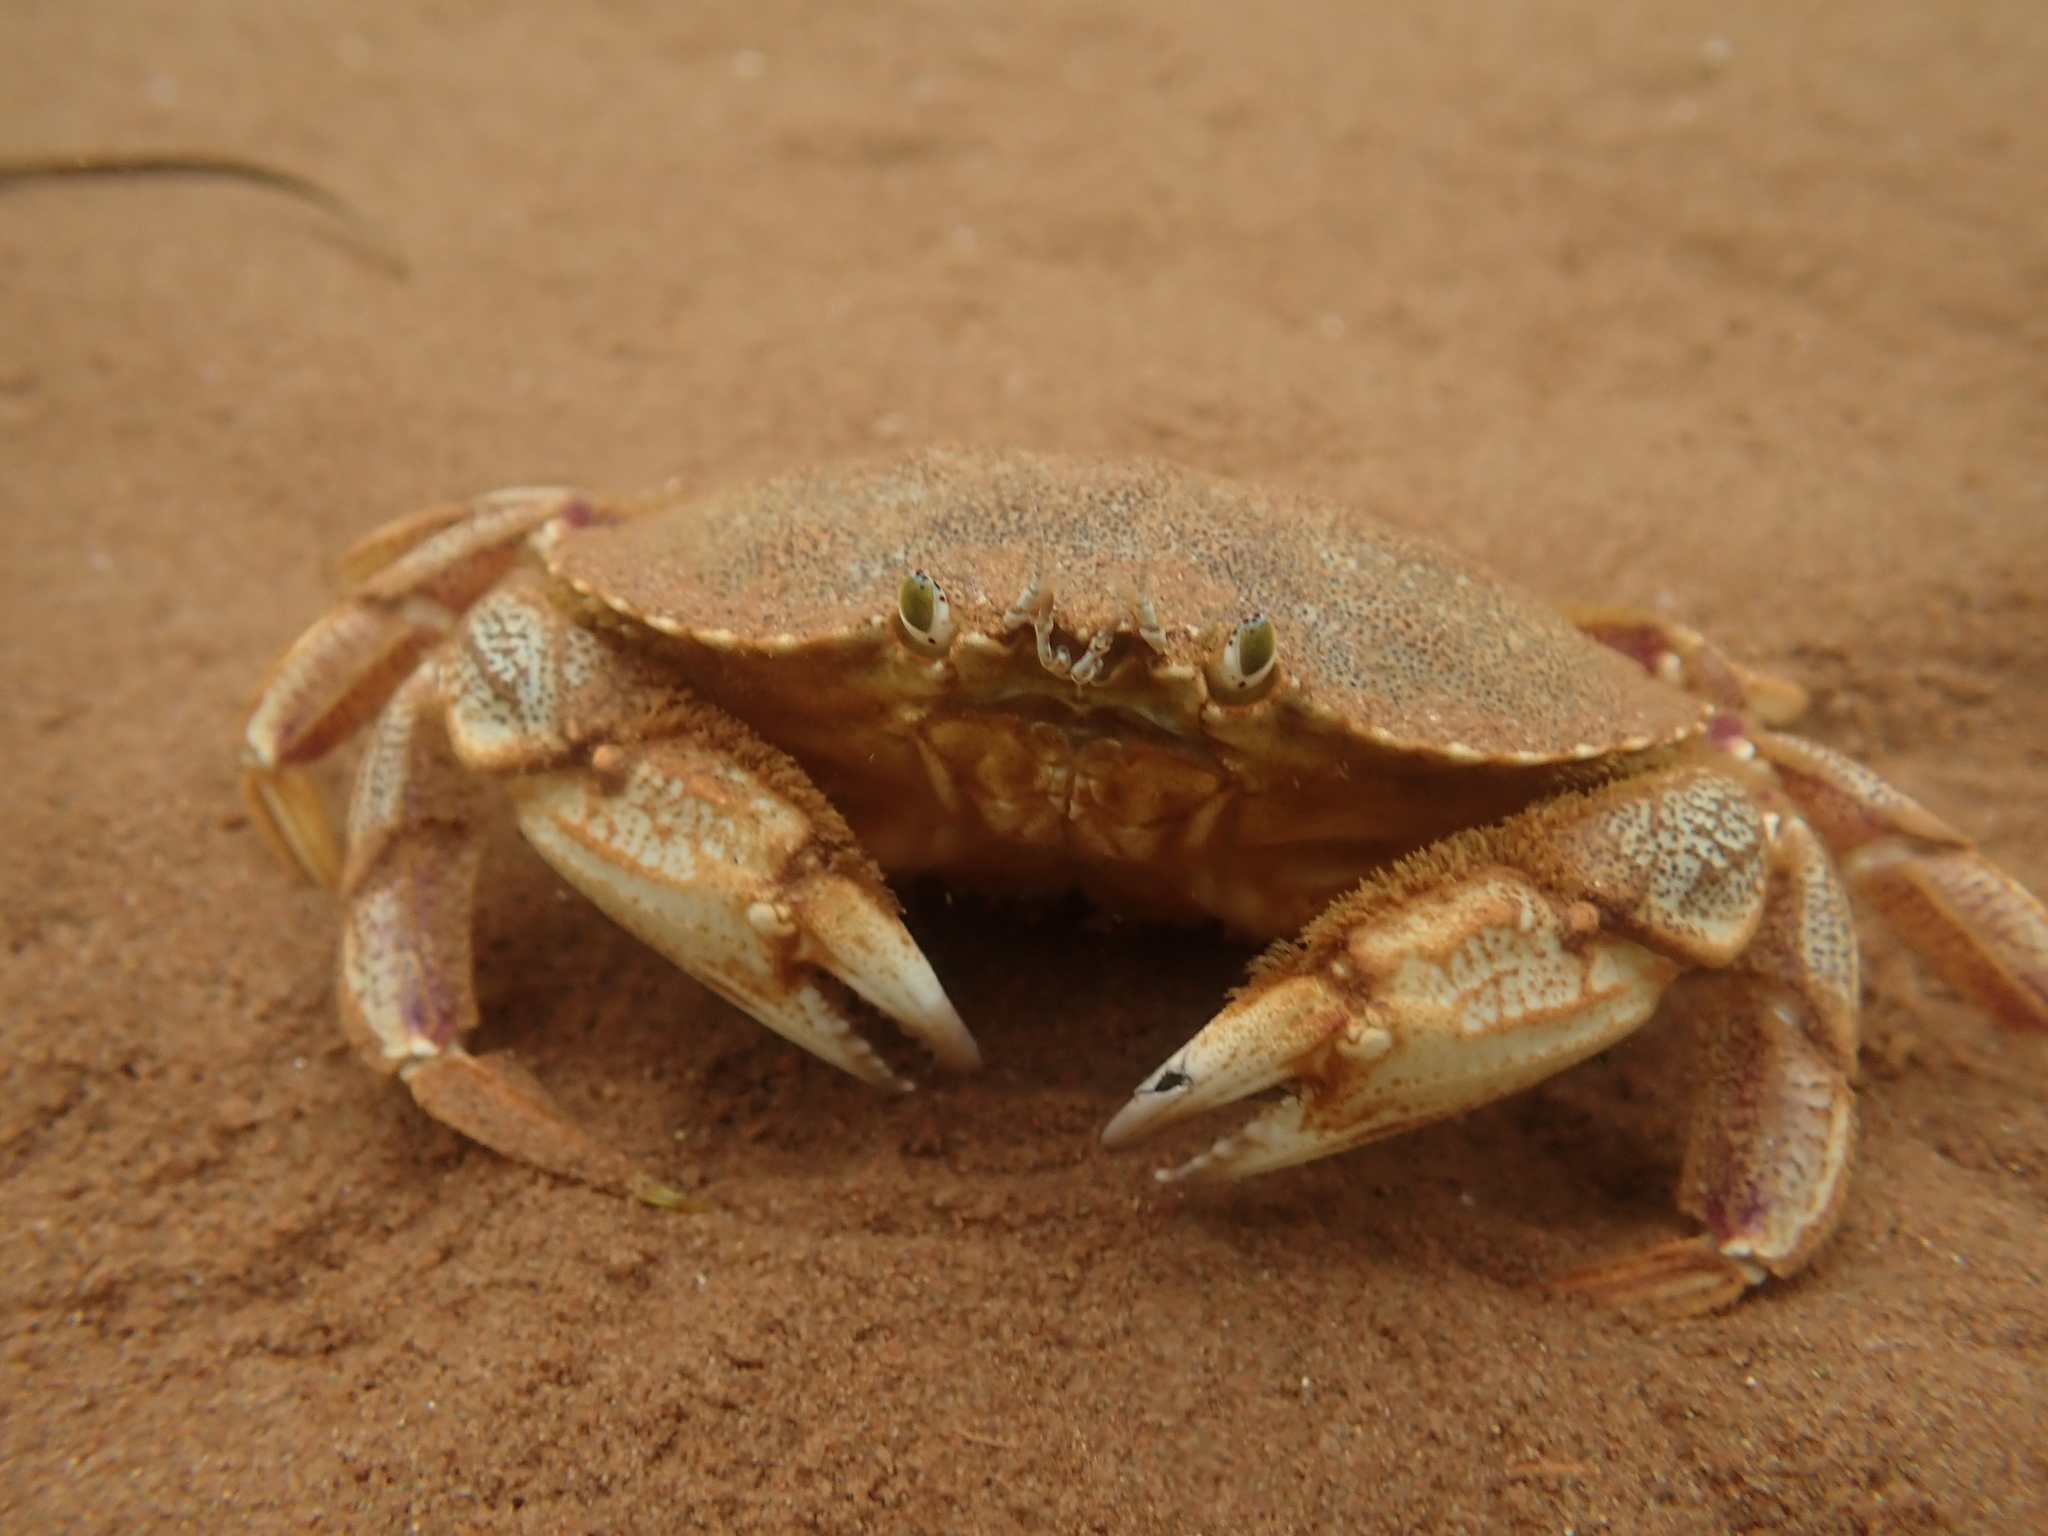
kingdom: Animalia
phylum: Arthropoda
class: Malacostraca
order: Decapoda
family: Cancridae
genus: Cancer
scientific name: Cancer irroratus
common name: Atlantic rock crab
